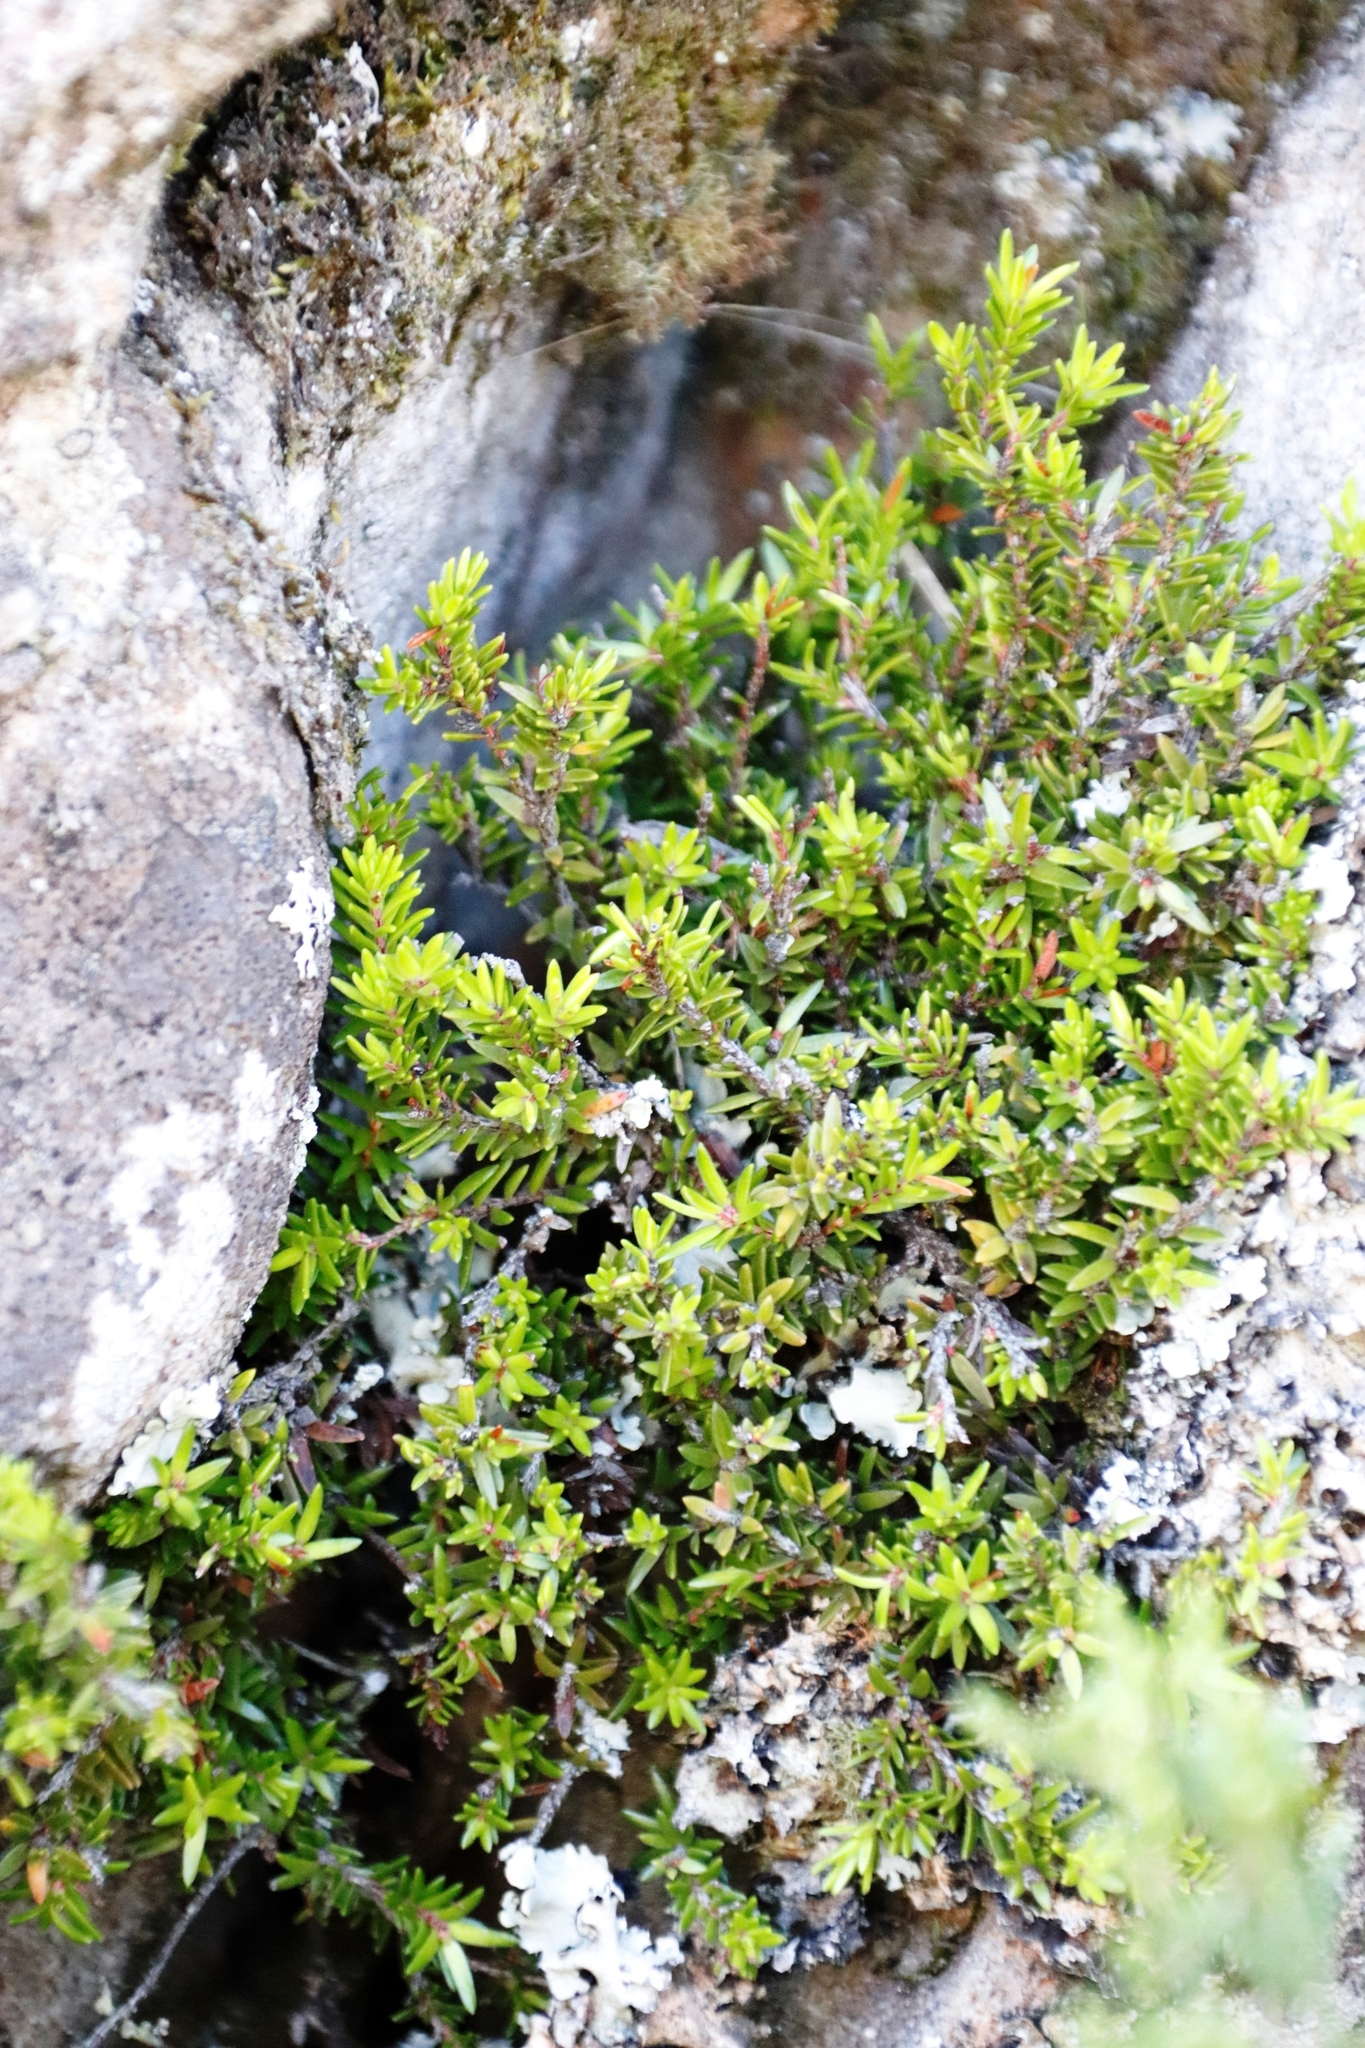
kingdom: Plantae
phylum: Tracheophyta
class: Magnoliopsida
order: Ericales
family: Ericaceae
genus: Erica
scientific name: Erica depressa
